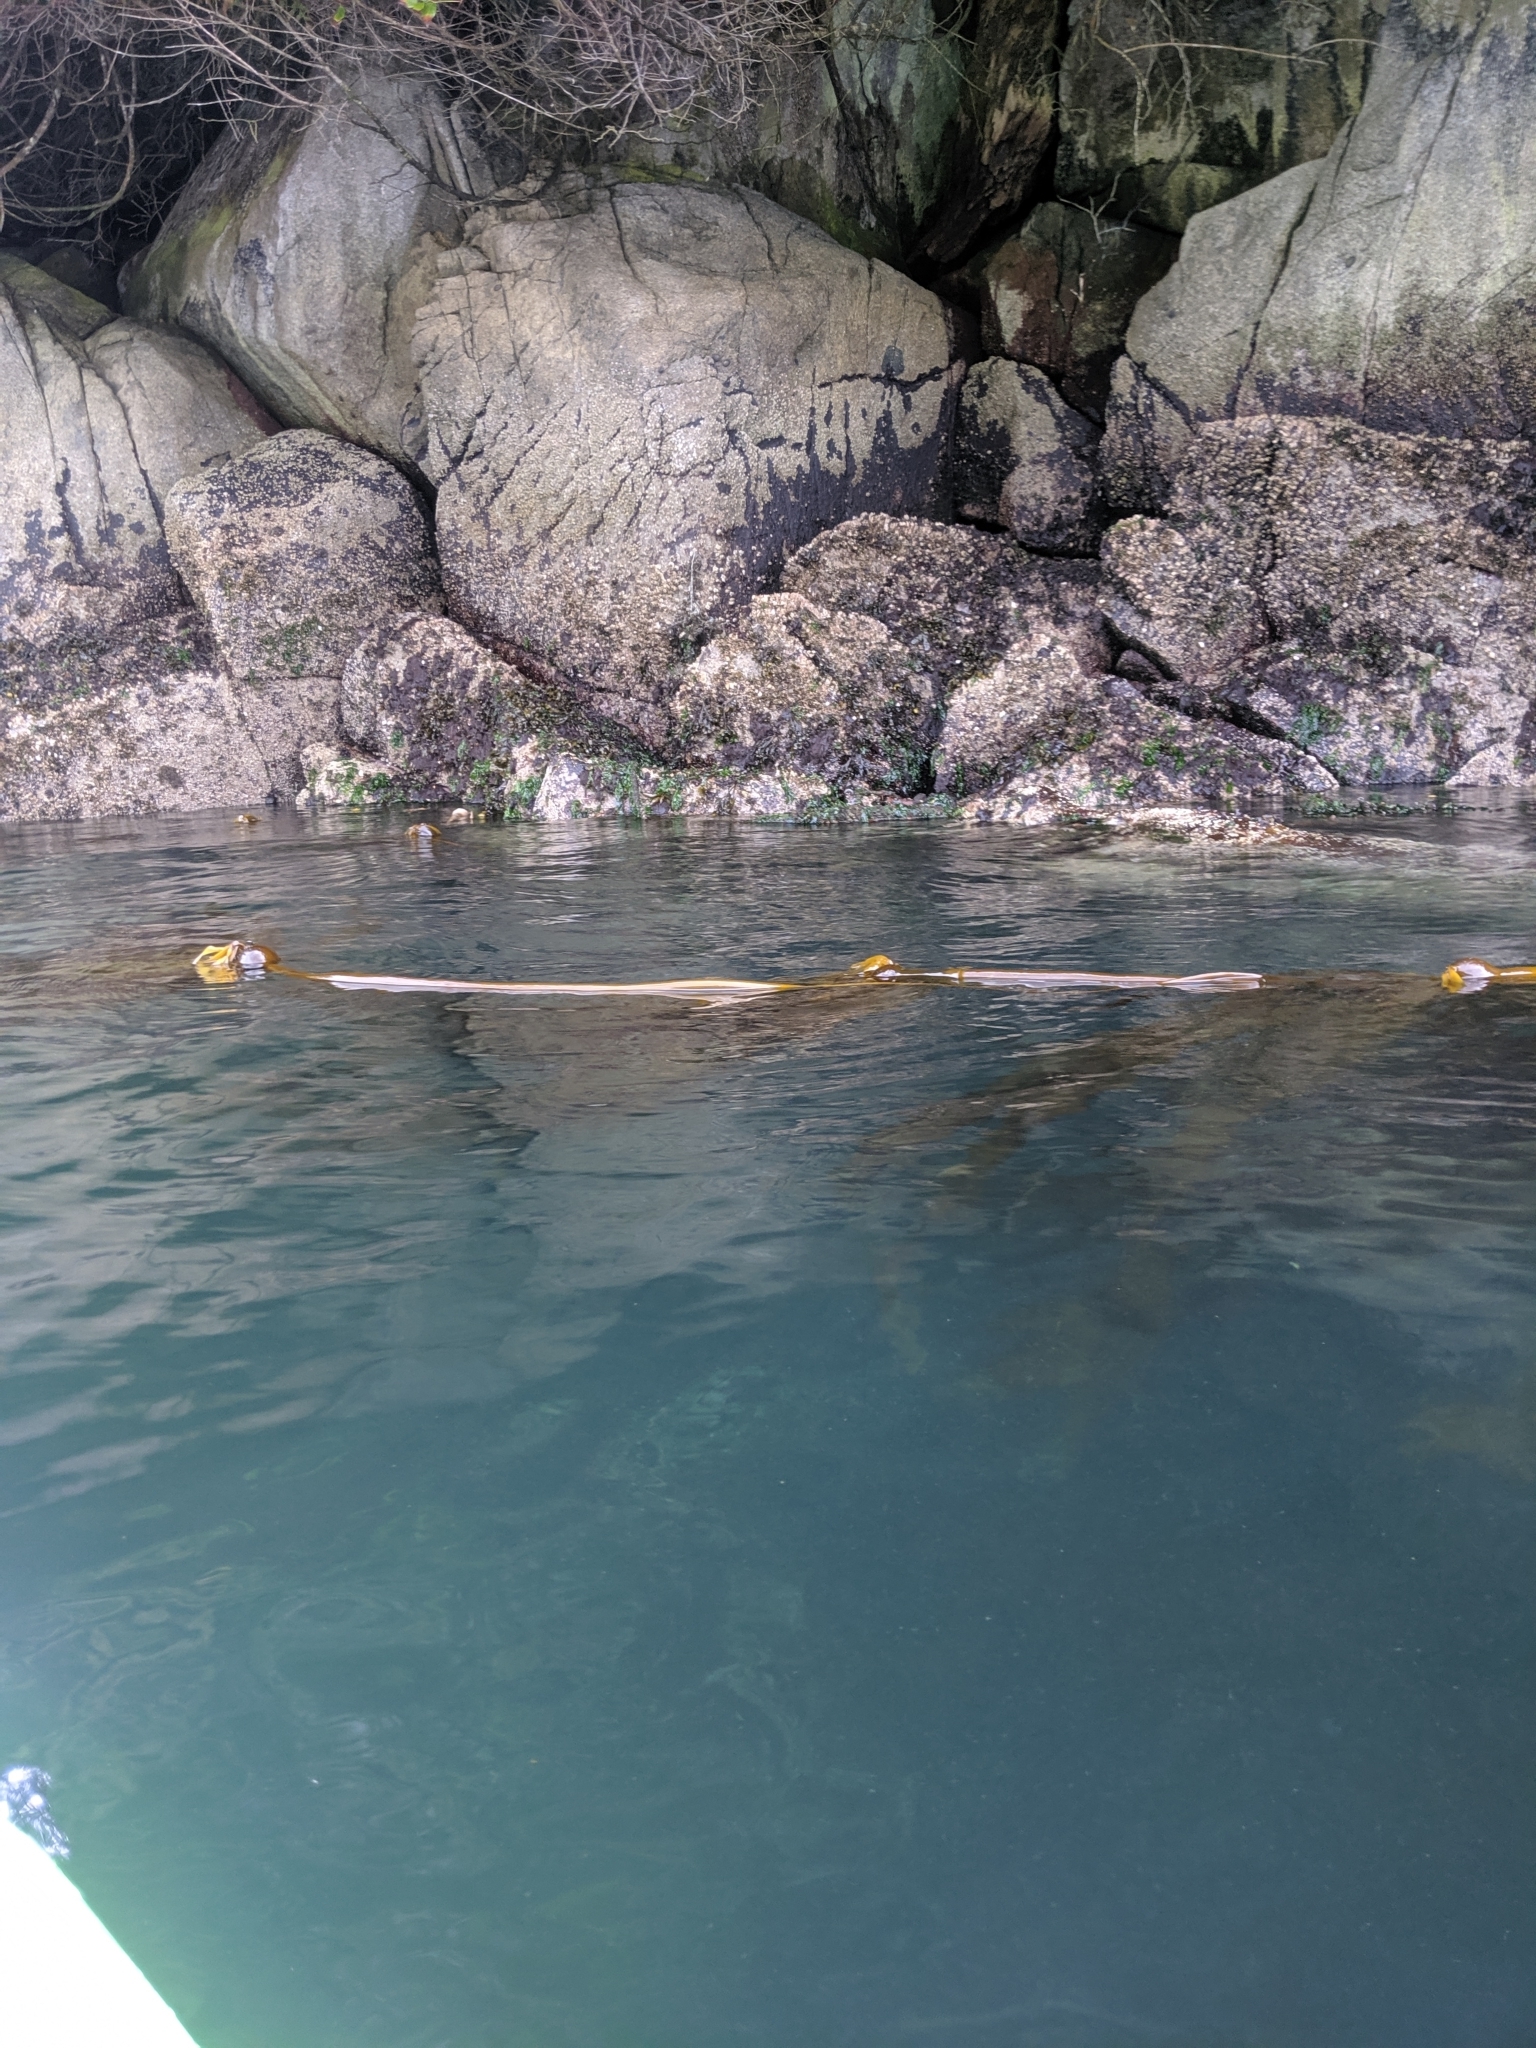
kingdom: Chromista
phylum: Ochrophyta
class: Phaeophyceae
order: Laminariales
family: Laminariaceae
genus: Nereocystis
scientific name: Nereocystis luetkeana
